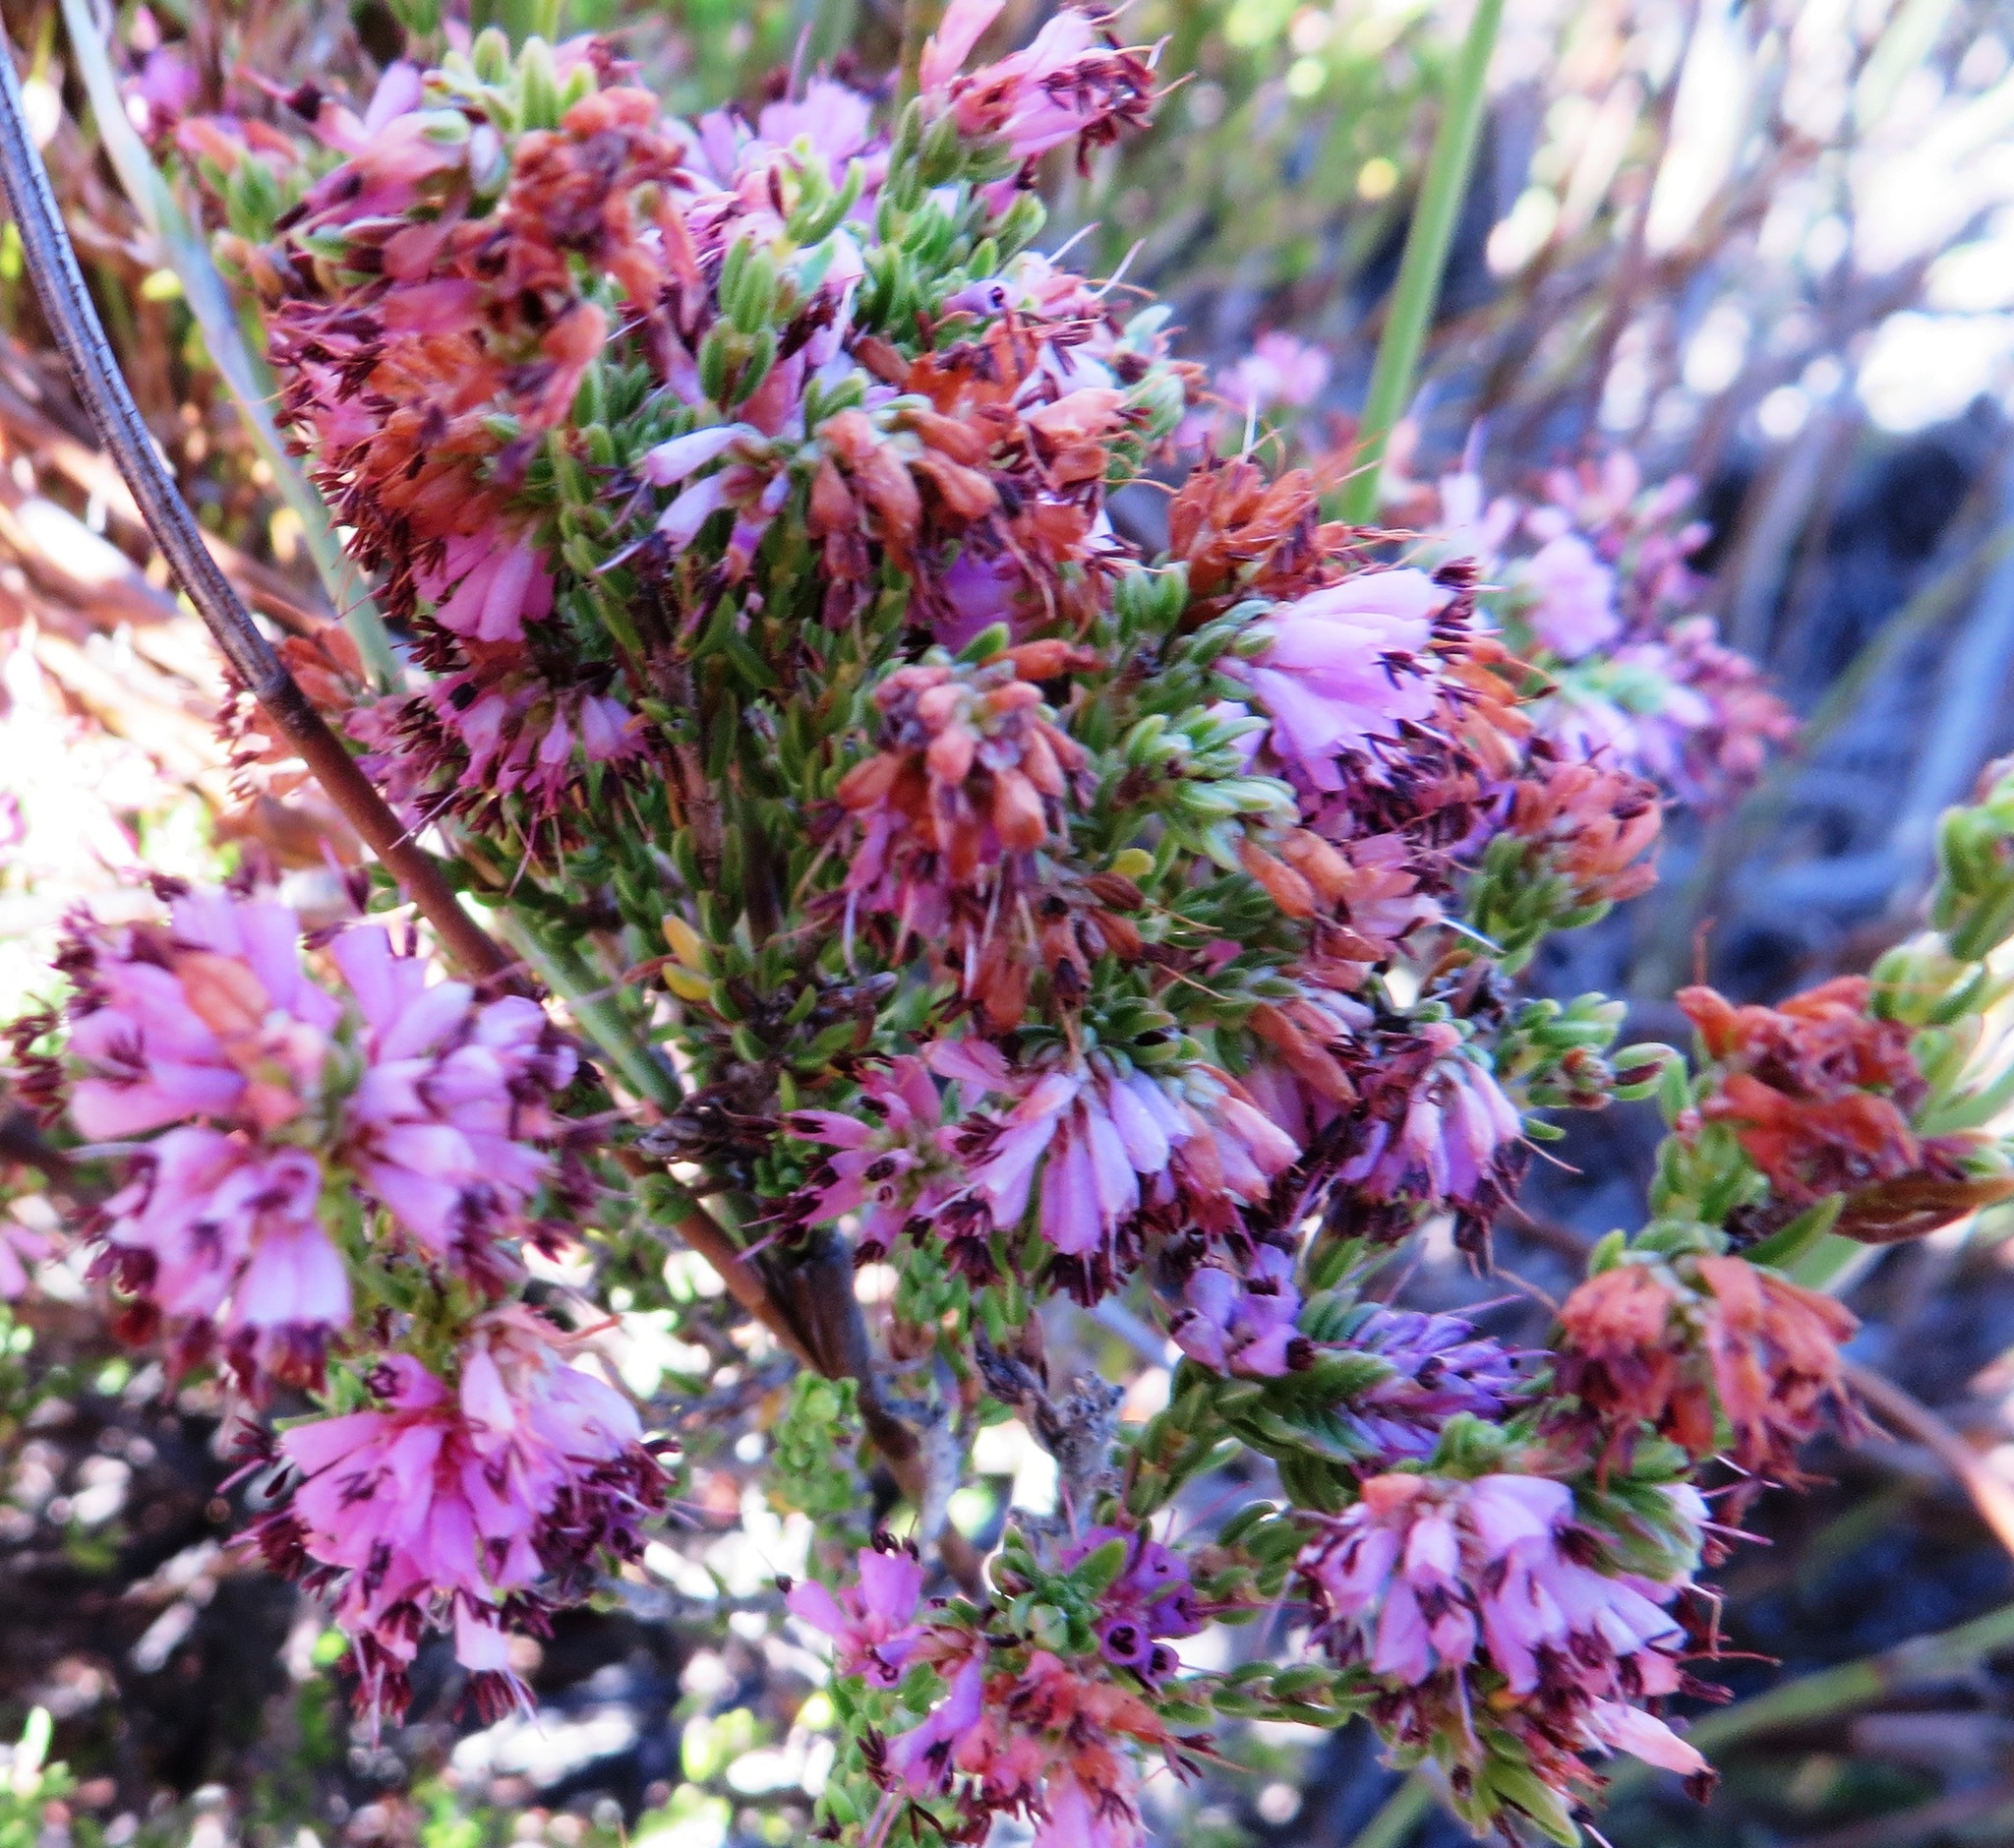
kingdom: Plantae
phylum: Tracheophyta
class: Magnoliopsida
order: Ericales
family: Ericaceae
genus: Erica
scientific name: Erica labialis
